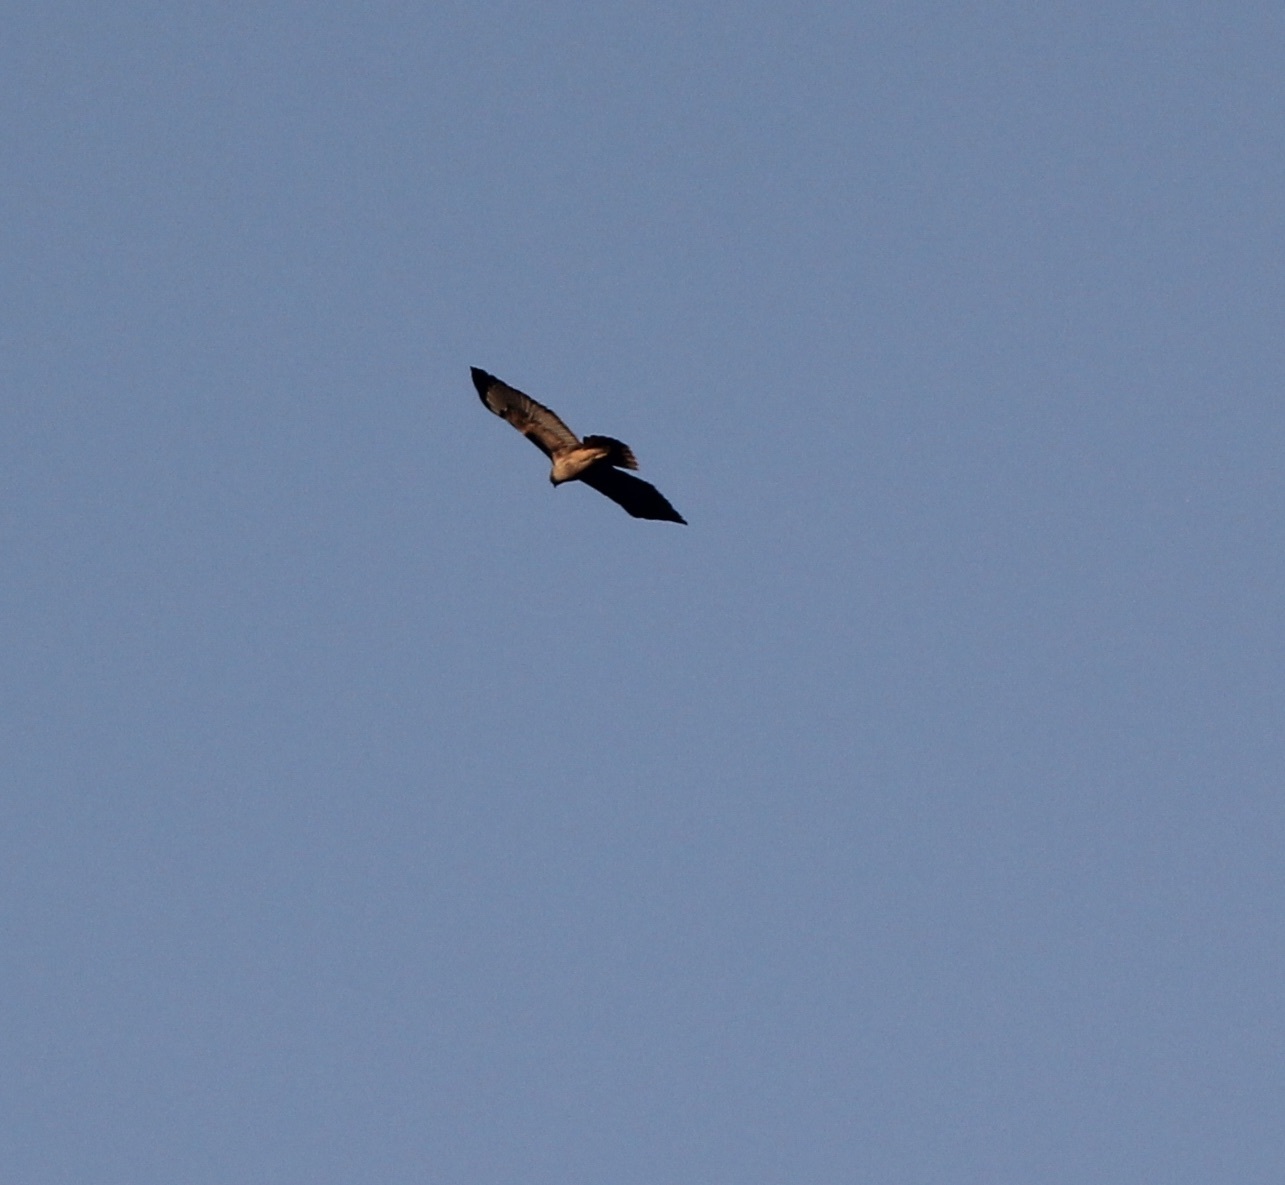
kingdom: Animalia
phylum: Chordata
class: Aves
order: Accipitriformes
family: Accipitridae
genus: Buteo
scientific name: Buteo jamaicensis
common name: Red-tailed hawk
